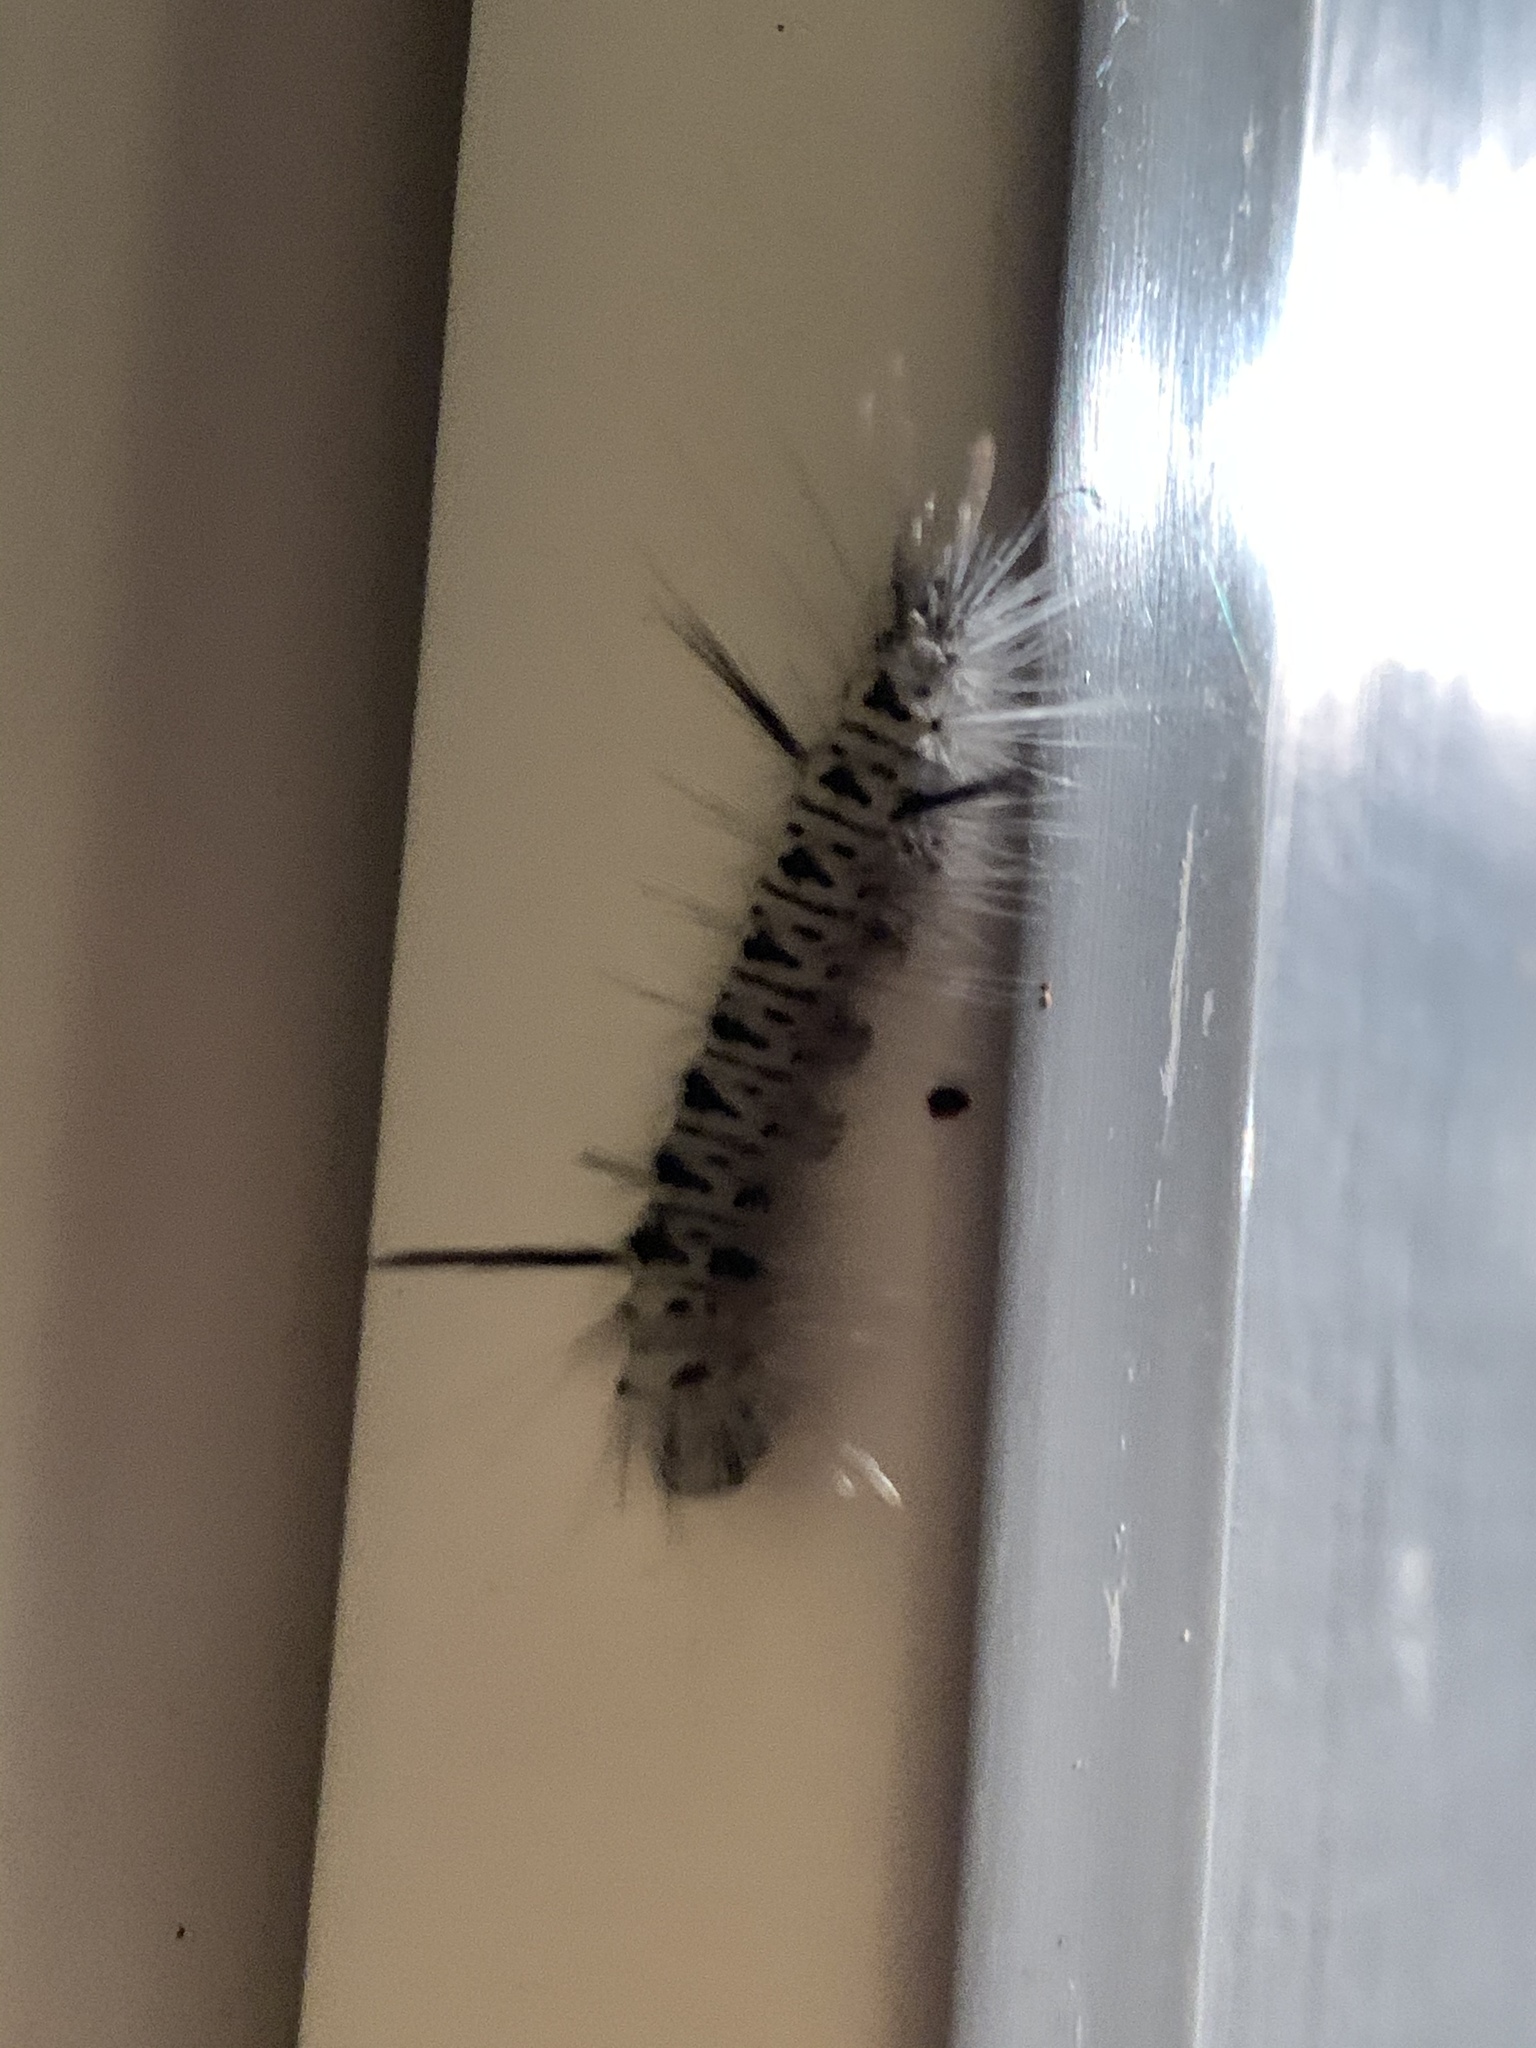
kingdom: Animalia
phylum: Arthropoda
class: Insecta
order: Lepidoptera
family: Erebidae
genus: Lophocampa
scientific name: Lophocampa caryae
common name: Hickory tussock moth
